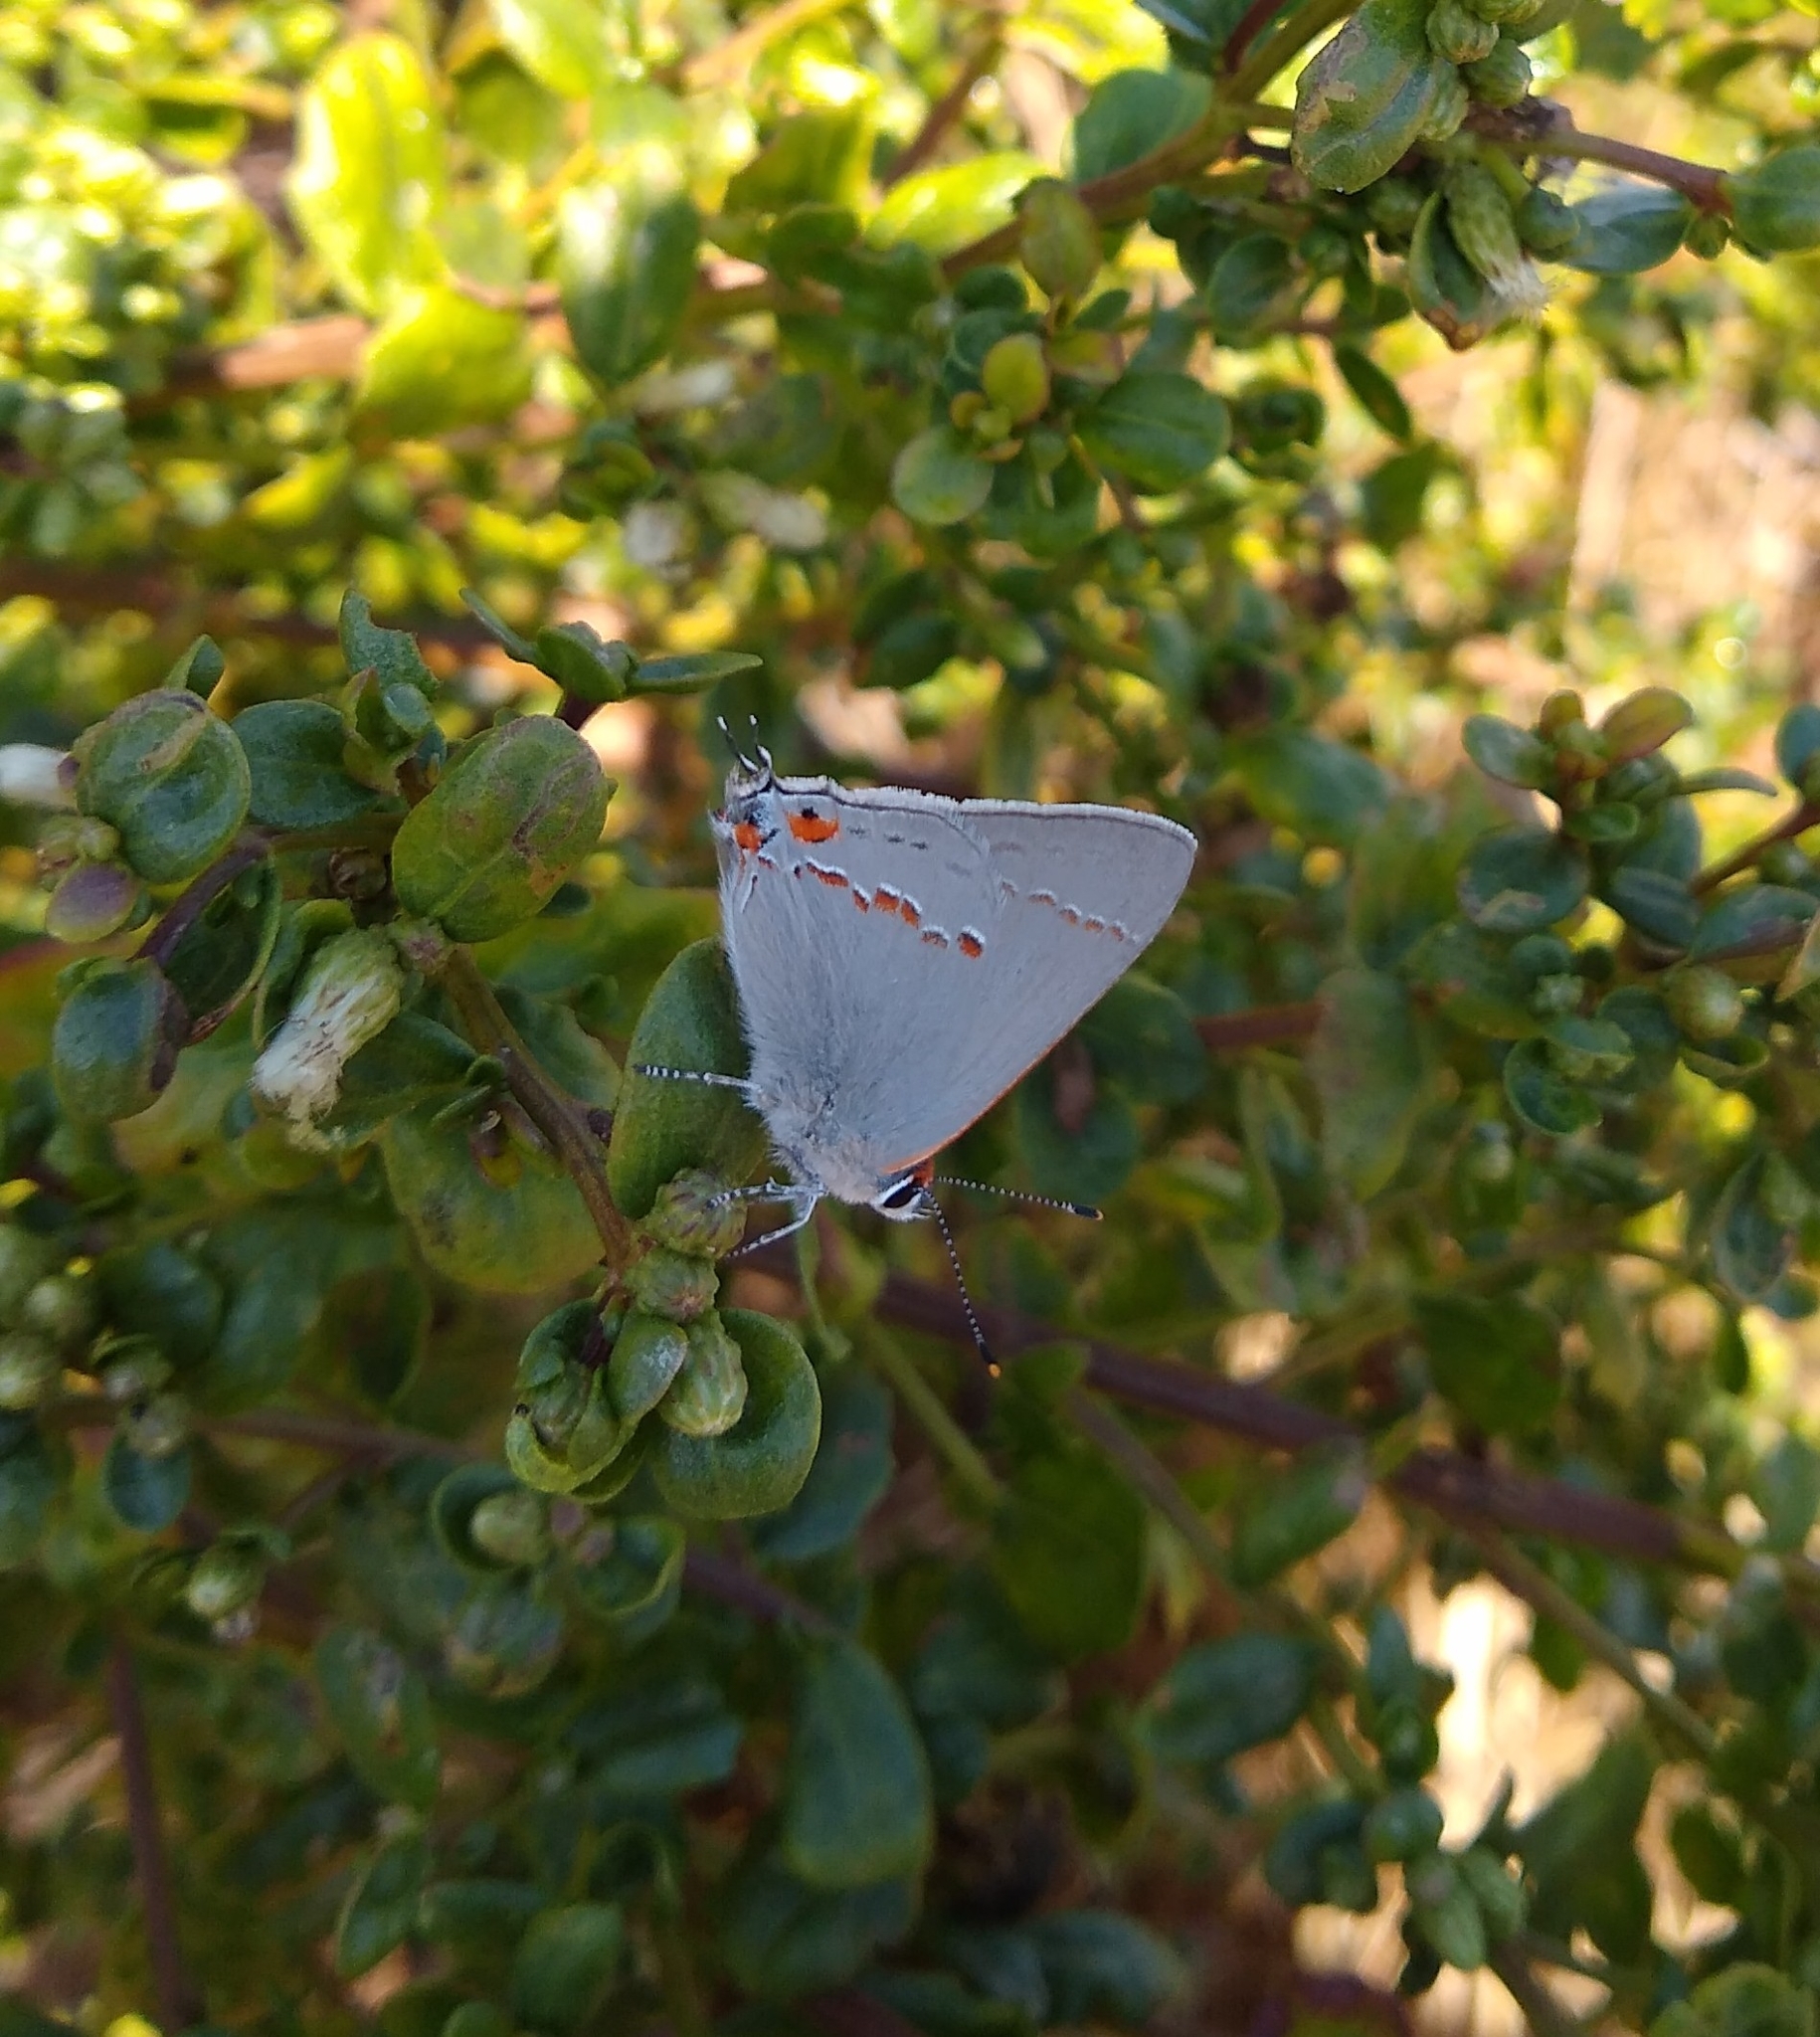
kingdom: Animalia
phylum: Arthropoda
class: Insecta
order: Lepidoptera
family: Lycaenidae
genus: Strymon
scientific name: Strymon melinus
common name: Gray hairstreak
